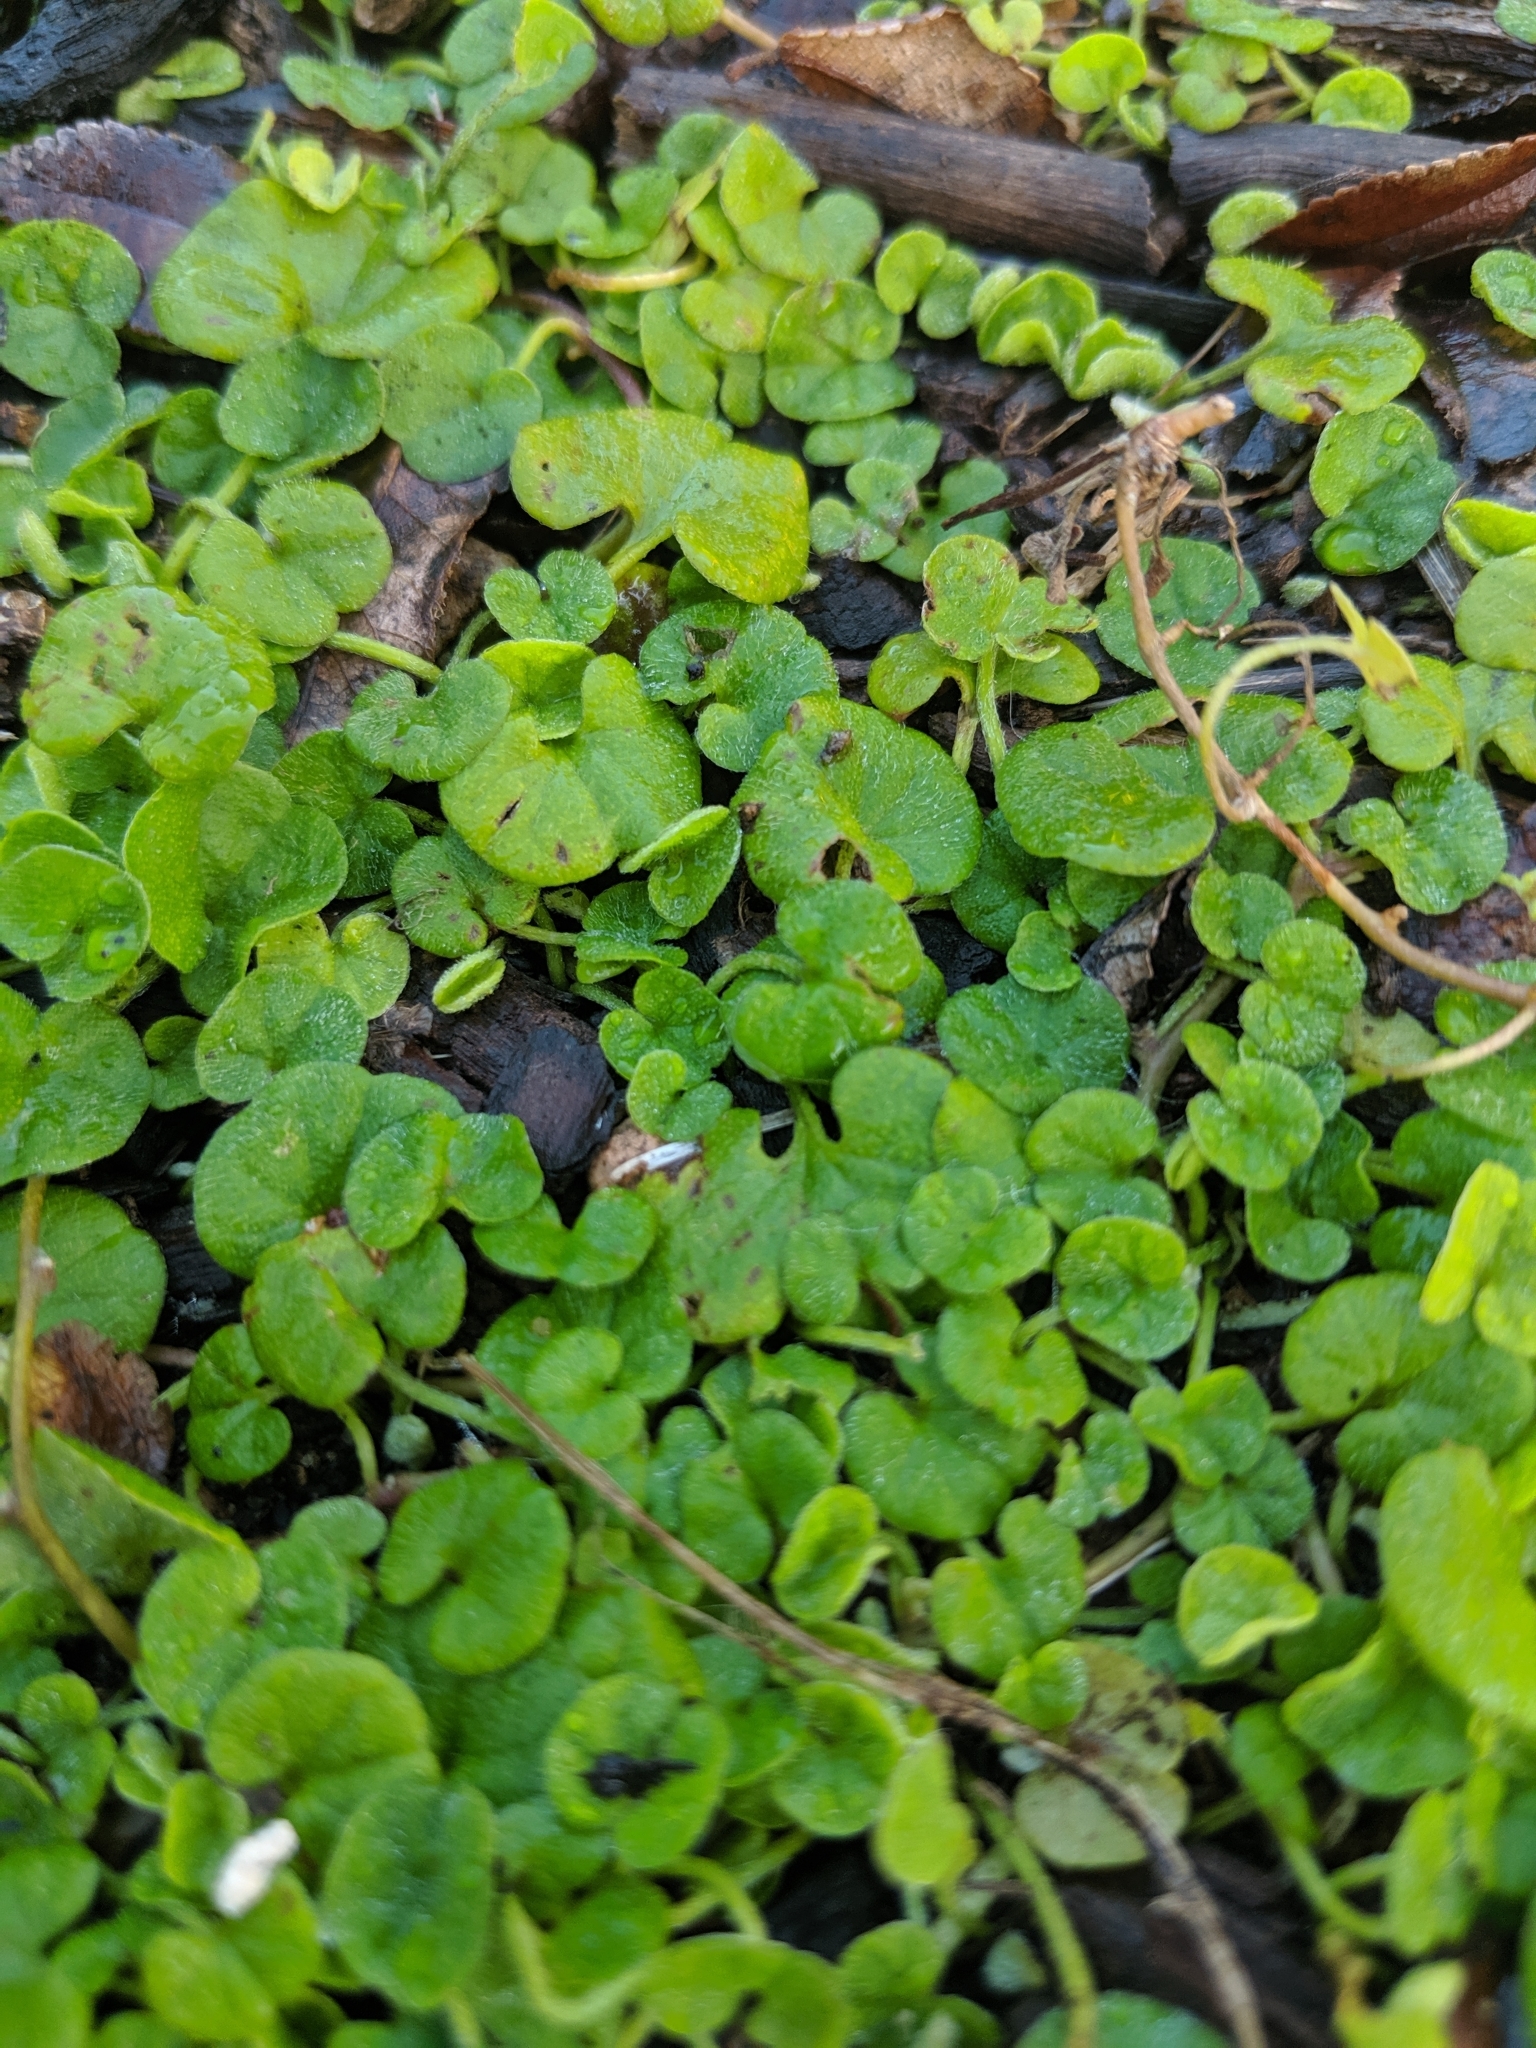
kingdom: Plantae
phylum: Tracheophyta
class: Magnoliopsida
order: Solanales
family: Convolvulaceae
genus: Dichondra
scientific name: Dichondra repens
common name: Kidneyweed
